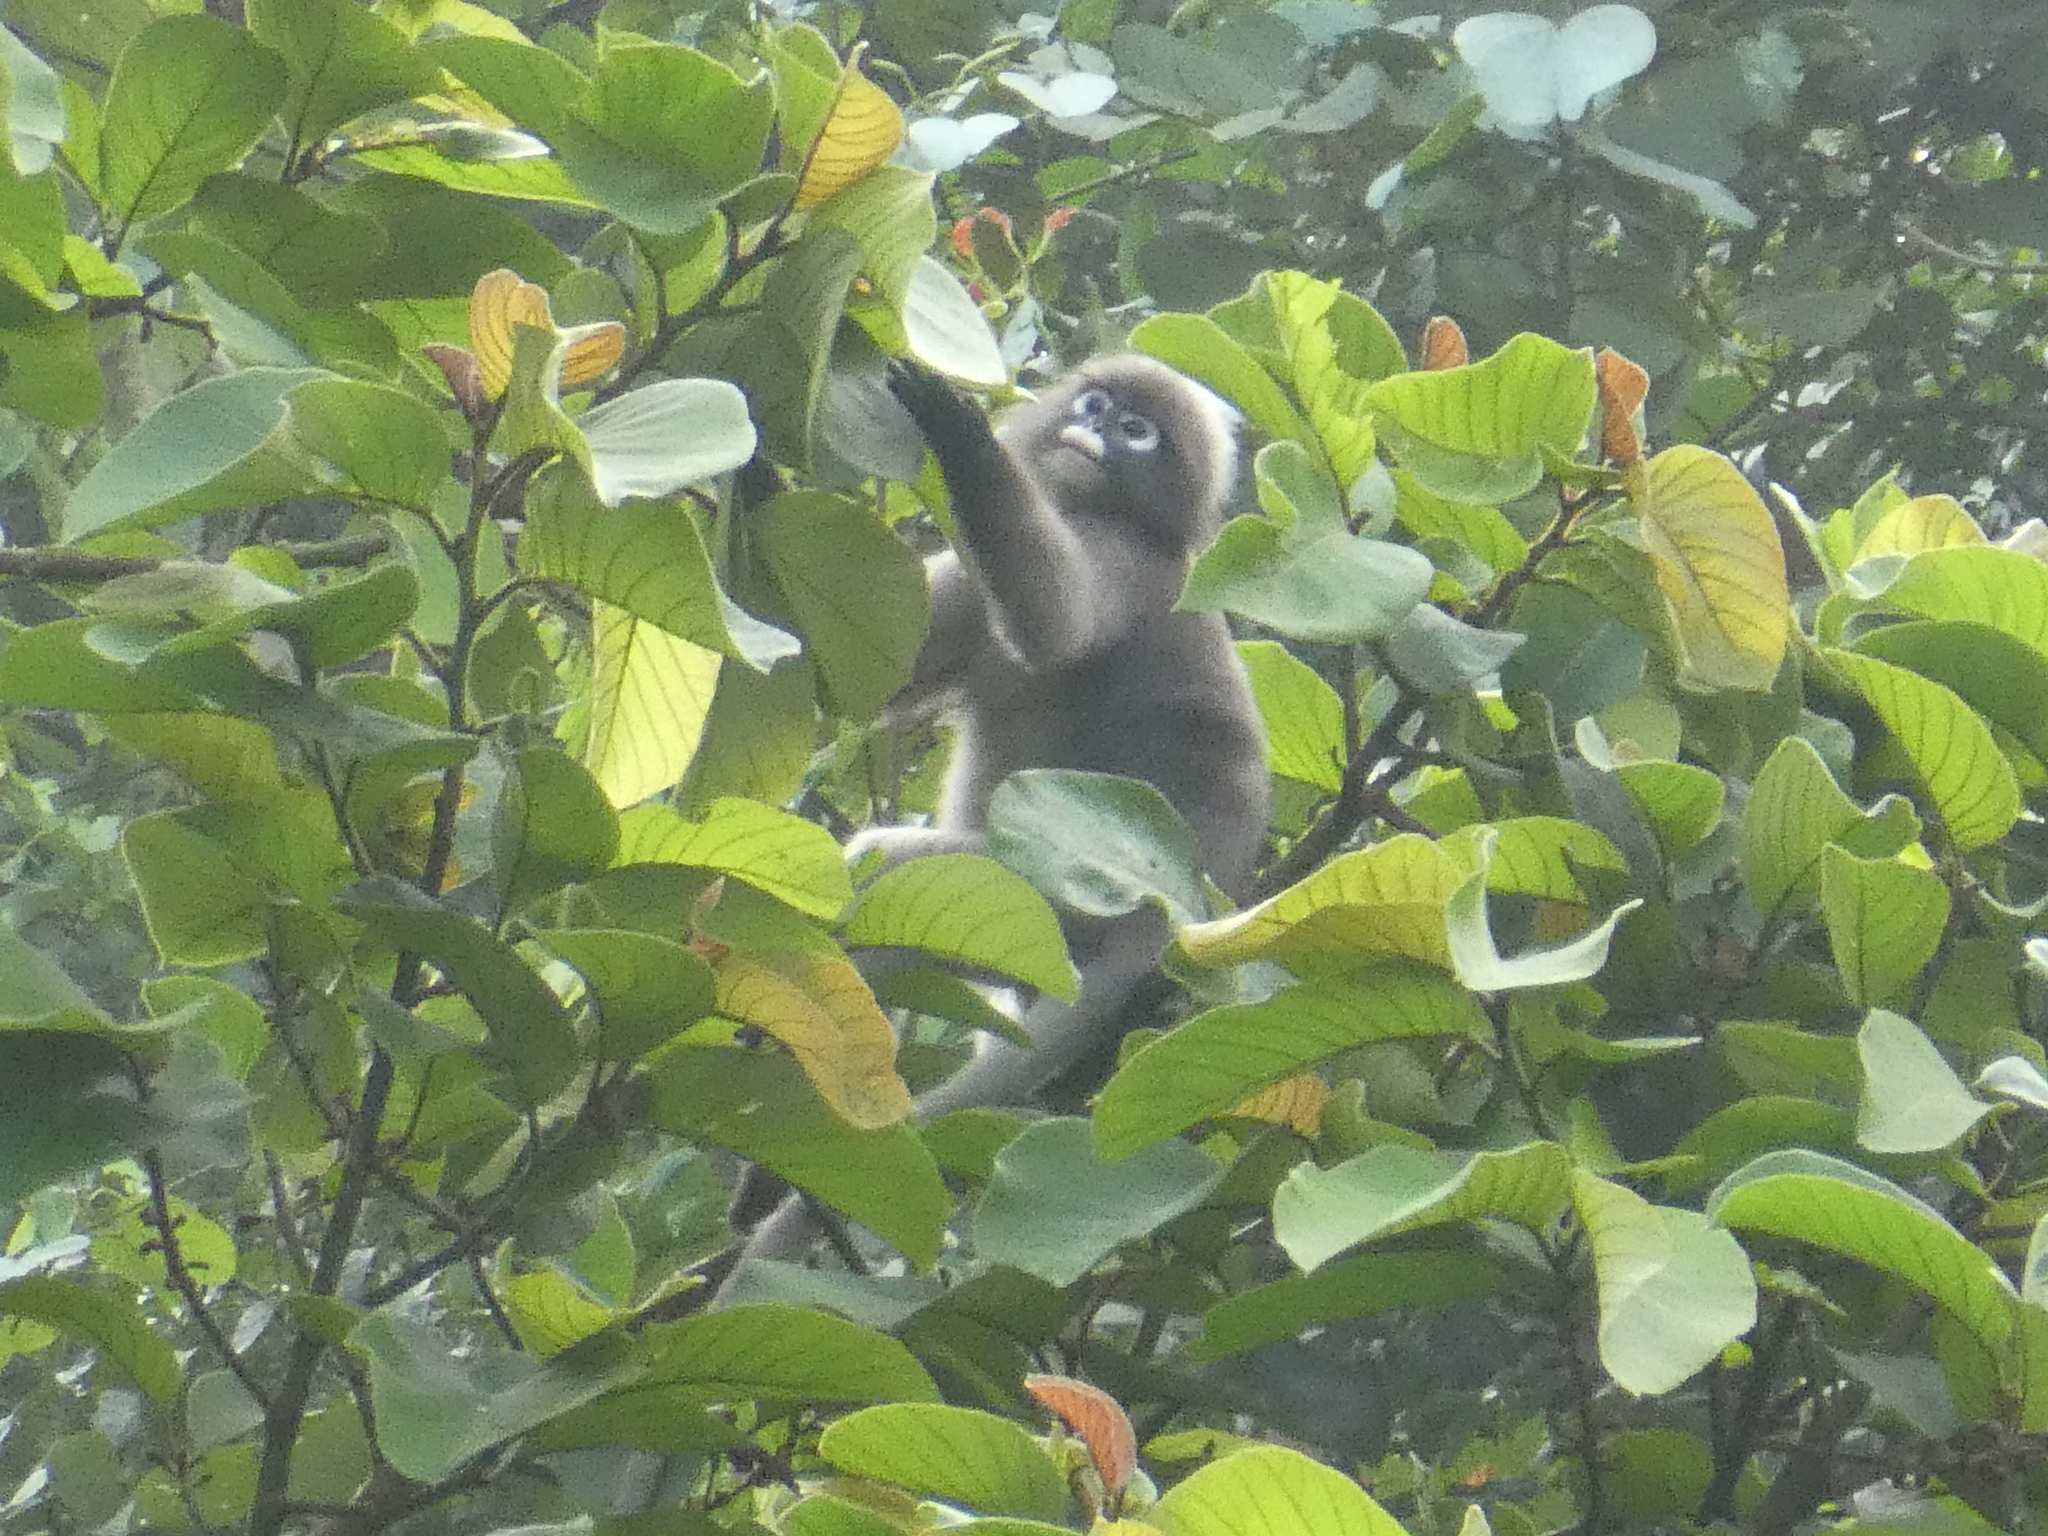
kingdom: Animalia
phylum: Chordata
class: Mammalia
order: Primates
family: Cercopithecidae
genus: Trachypithecus
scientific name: Trachypithecus obscurus
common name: Dusky leaf-monkey
